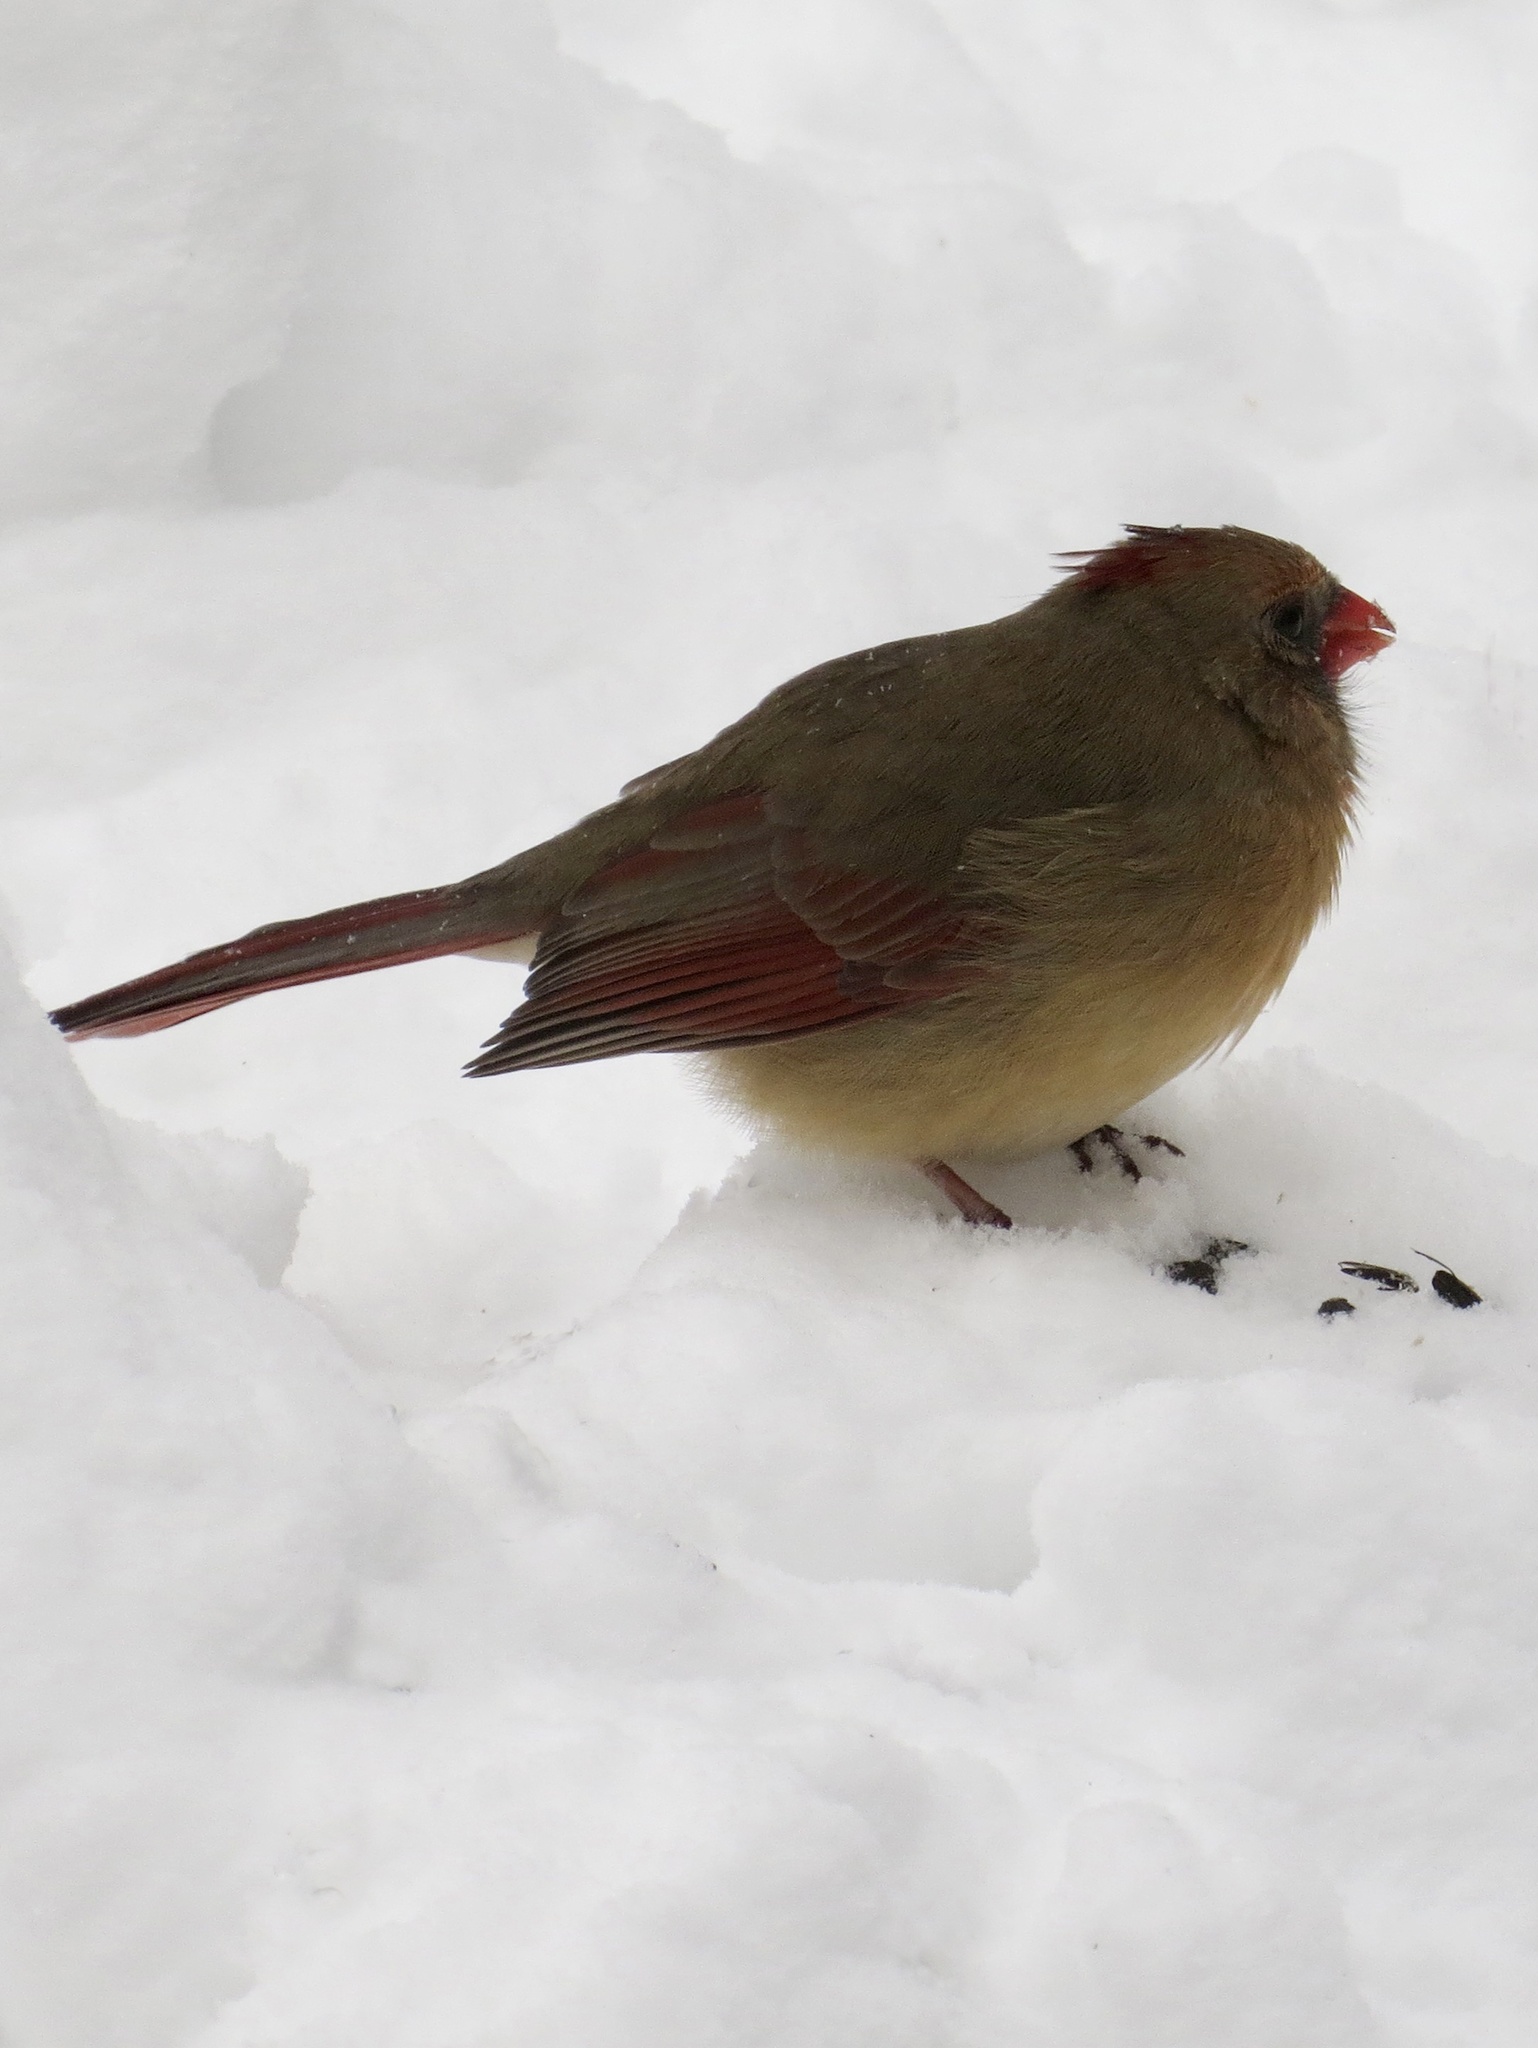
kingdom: Animalia
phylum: Chordata
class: Aves
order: Passeriformes
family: Cardinalidae
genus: Cardinalis
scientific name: Cardinalis cardinalis
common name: Northern cardinal
